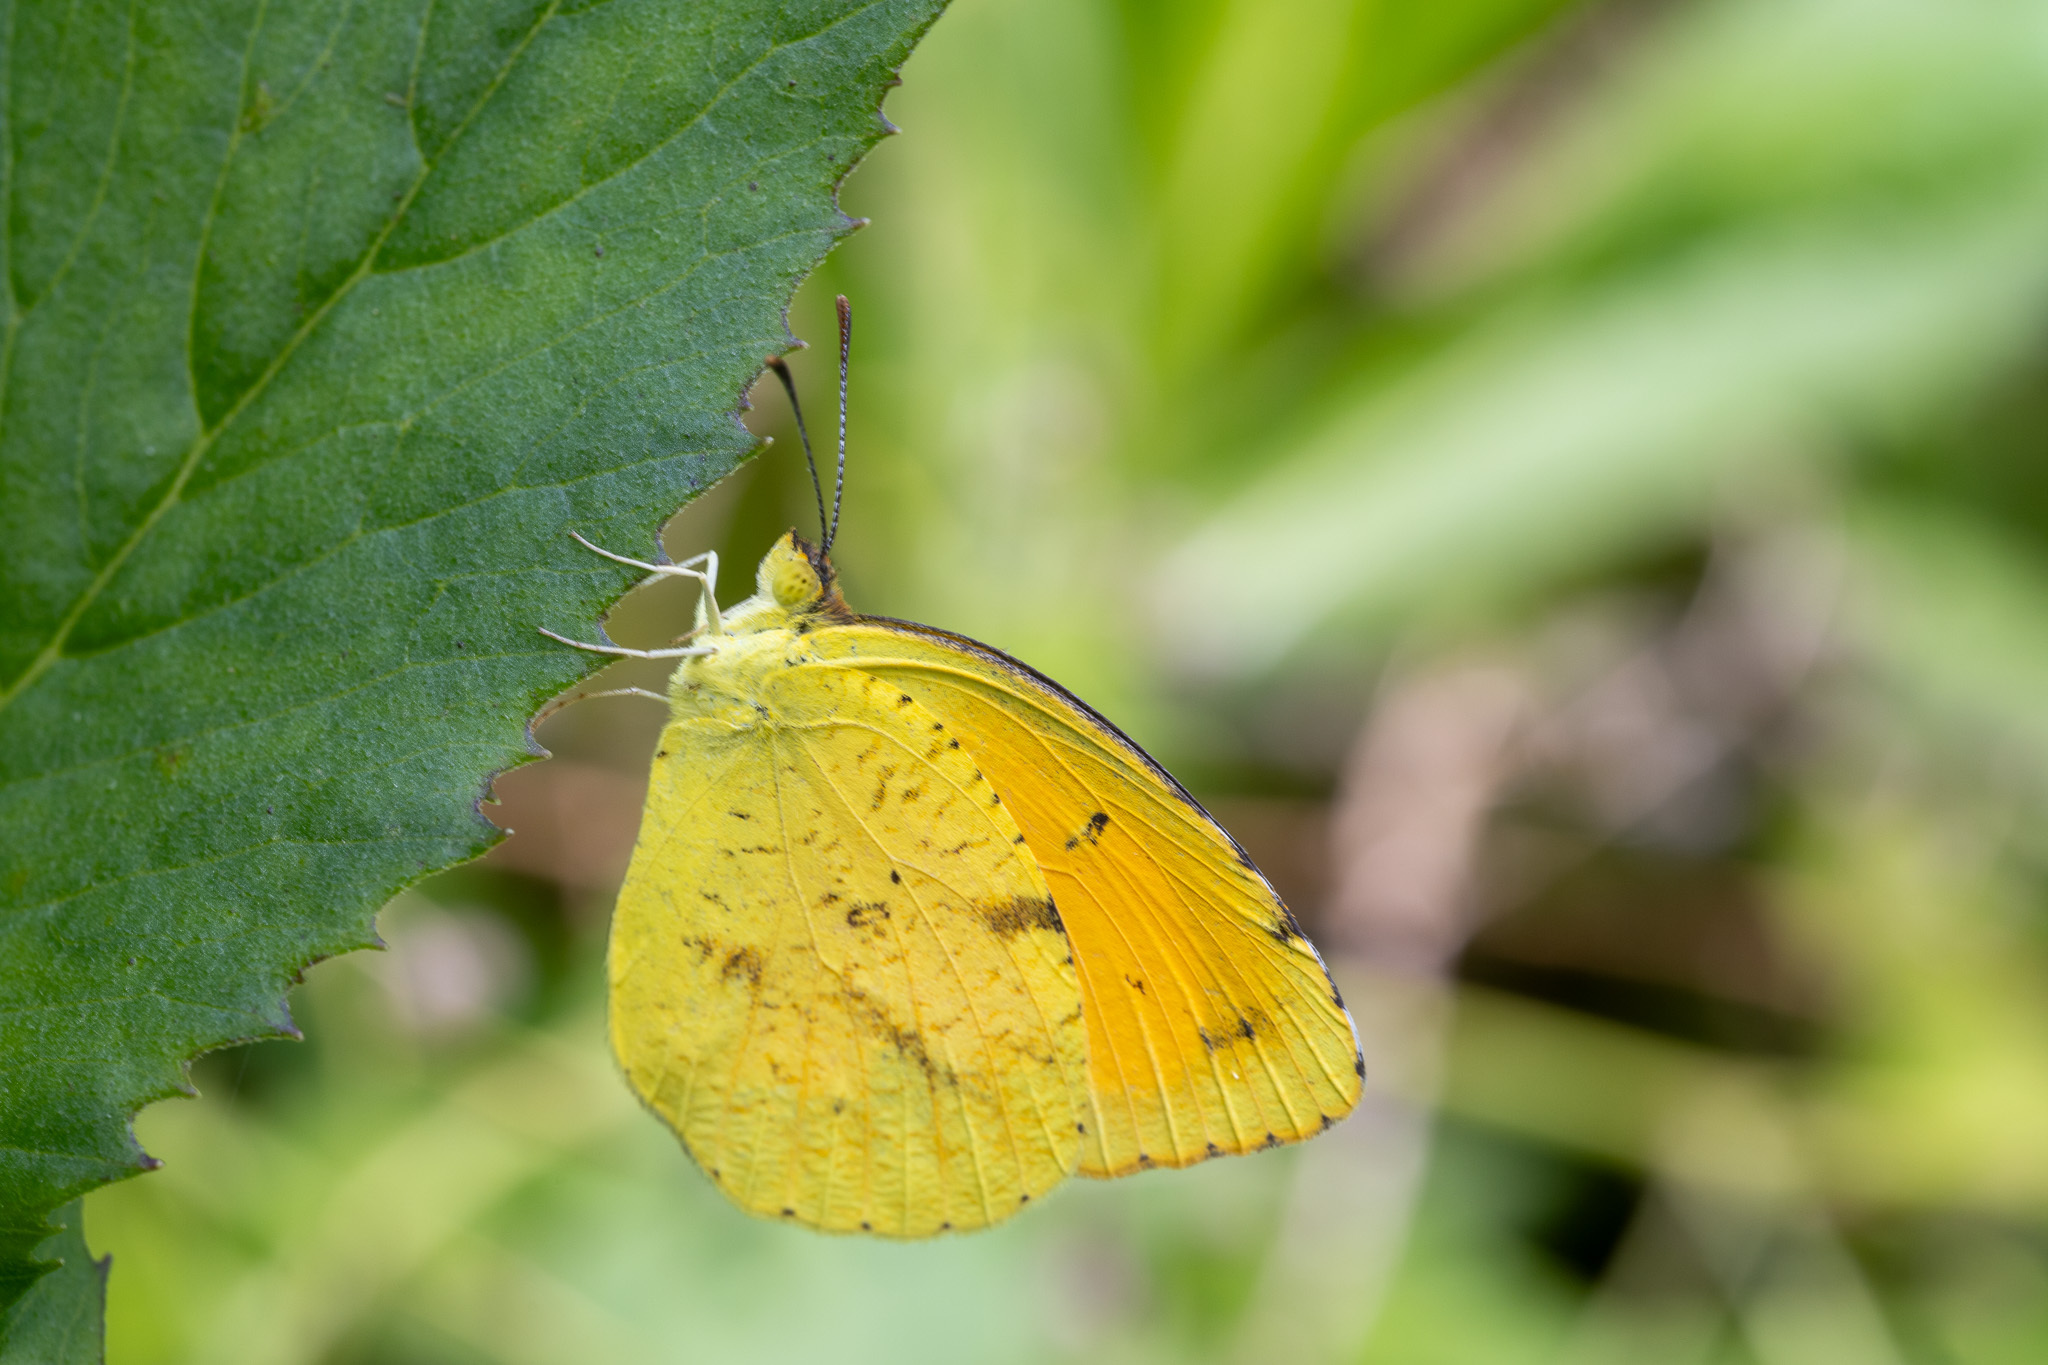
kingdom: Animalia
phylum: Arthropoda
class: Insecta
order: Lepidoptera
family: Pieridae
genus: Abaeis
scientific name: Abaeis nicippe
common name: Sleepy orange
